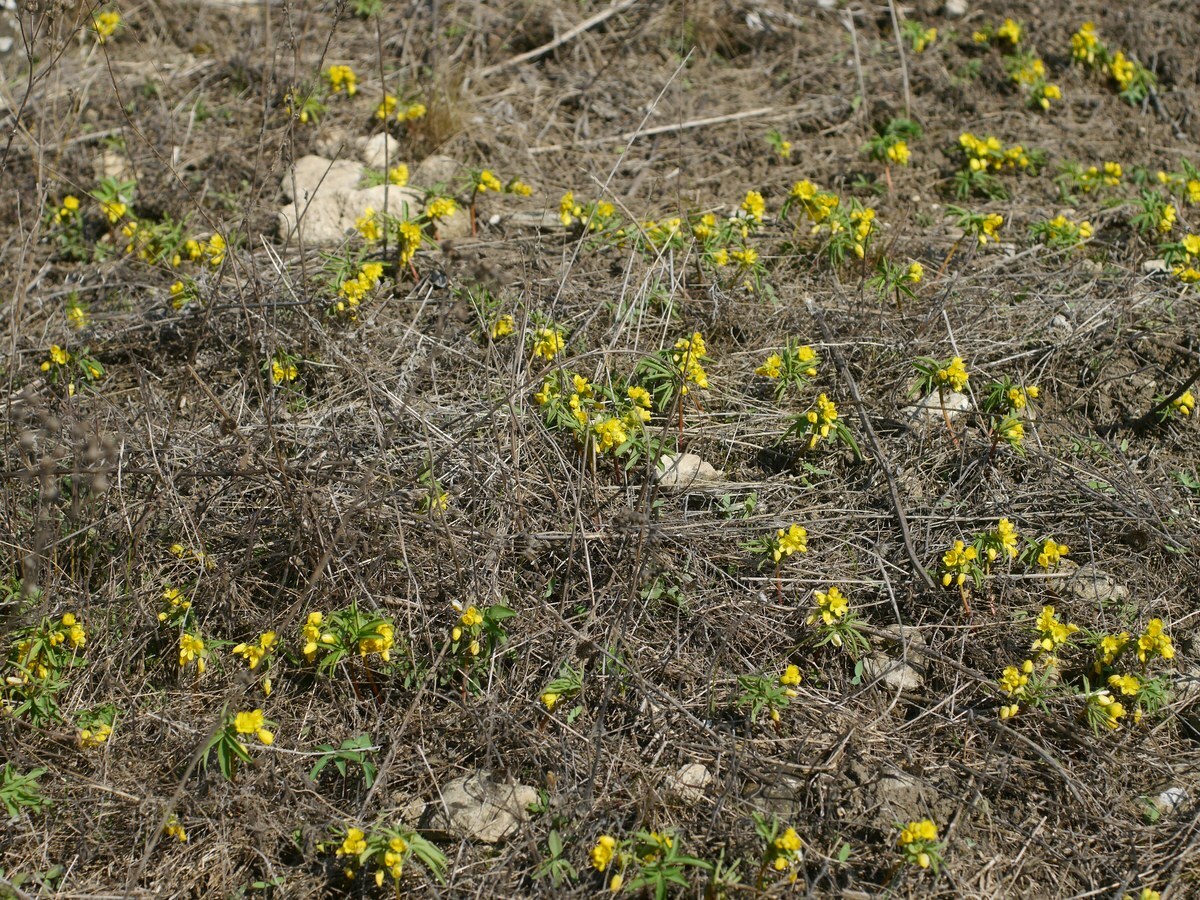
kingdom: Plantae
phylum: Tracheophyta
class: Magnoliopsida
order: Ranunculales
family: Berberidaceae
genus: Gymnospermium
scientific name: Gymnospermium odessanum
